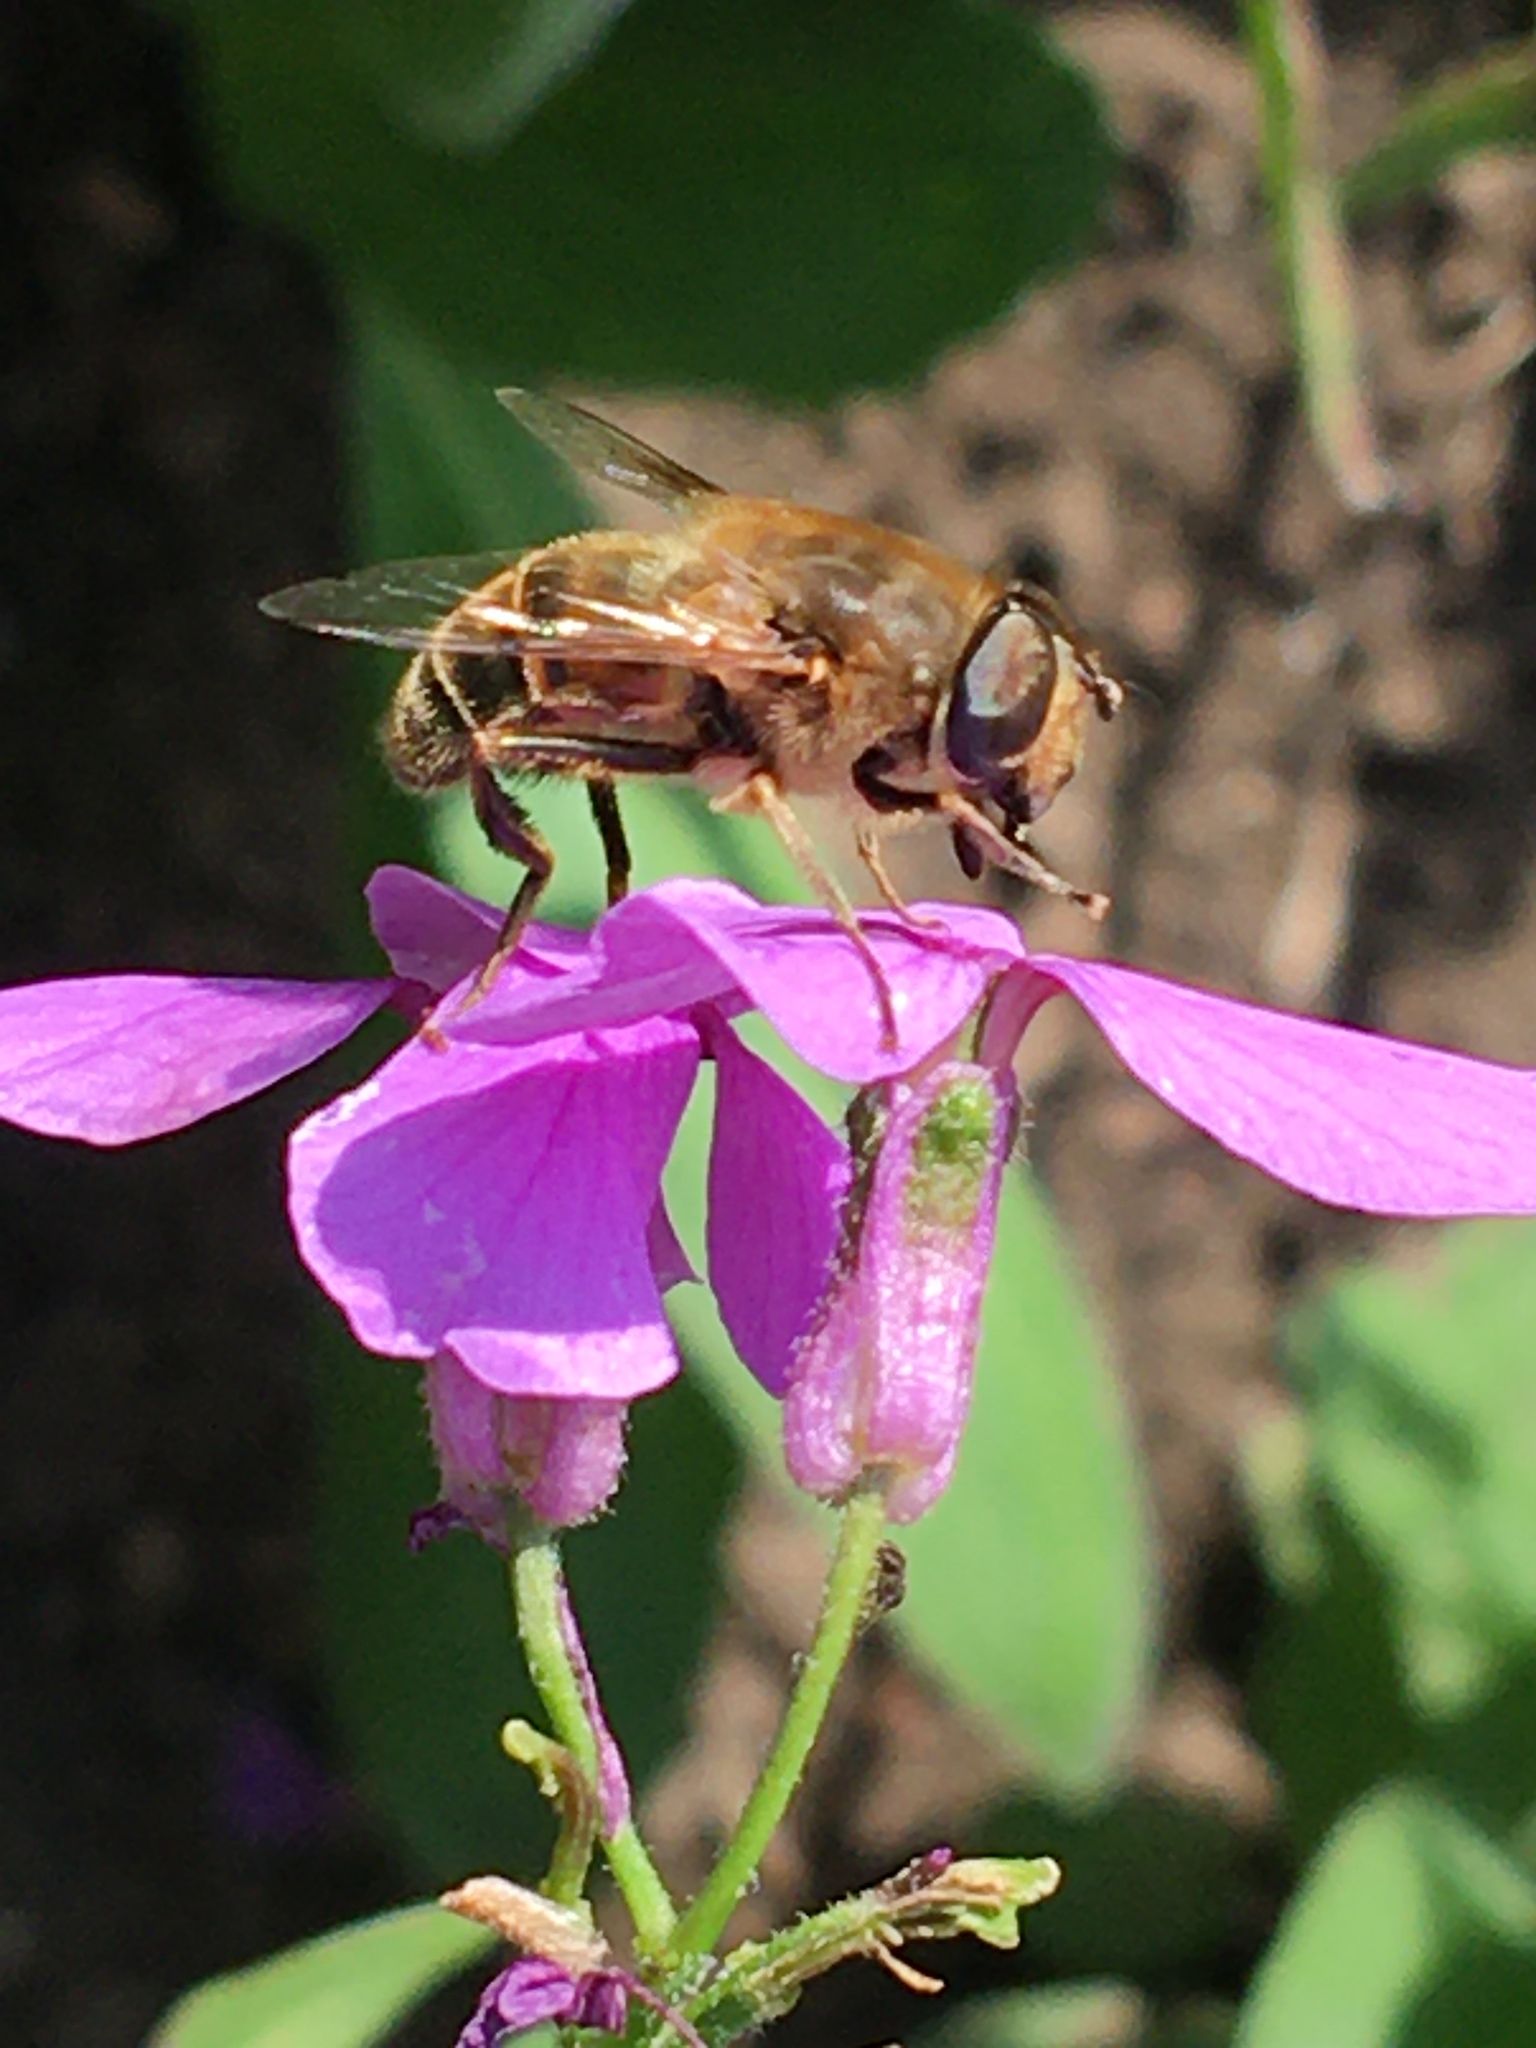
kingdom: Animalia
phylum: Arthropoda
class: Insecta
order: Diptera
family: Syrphidae
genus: Eristalis
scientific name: Eristalis tenax
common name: Drone fly
